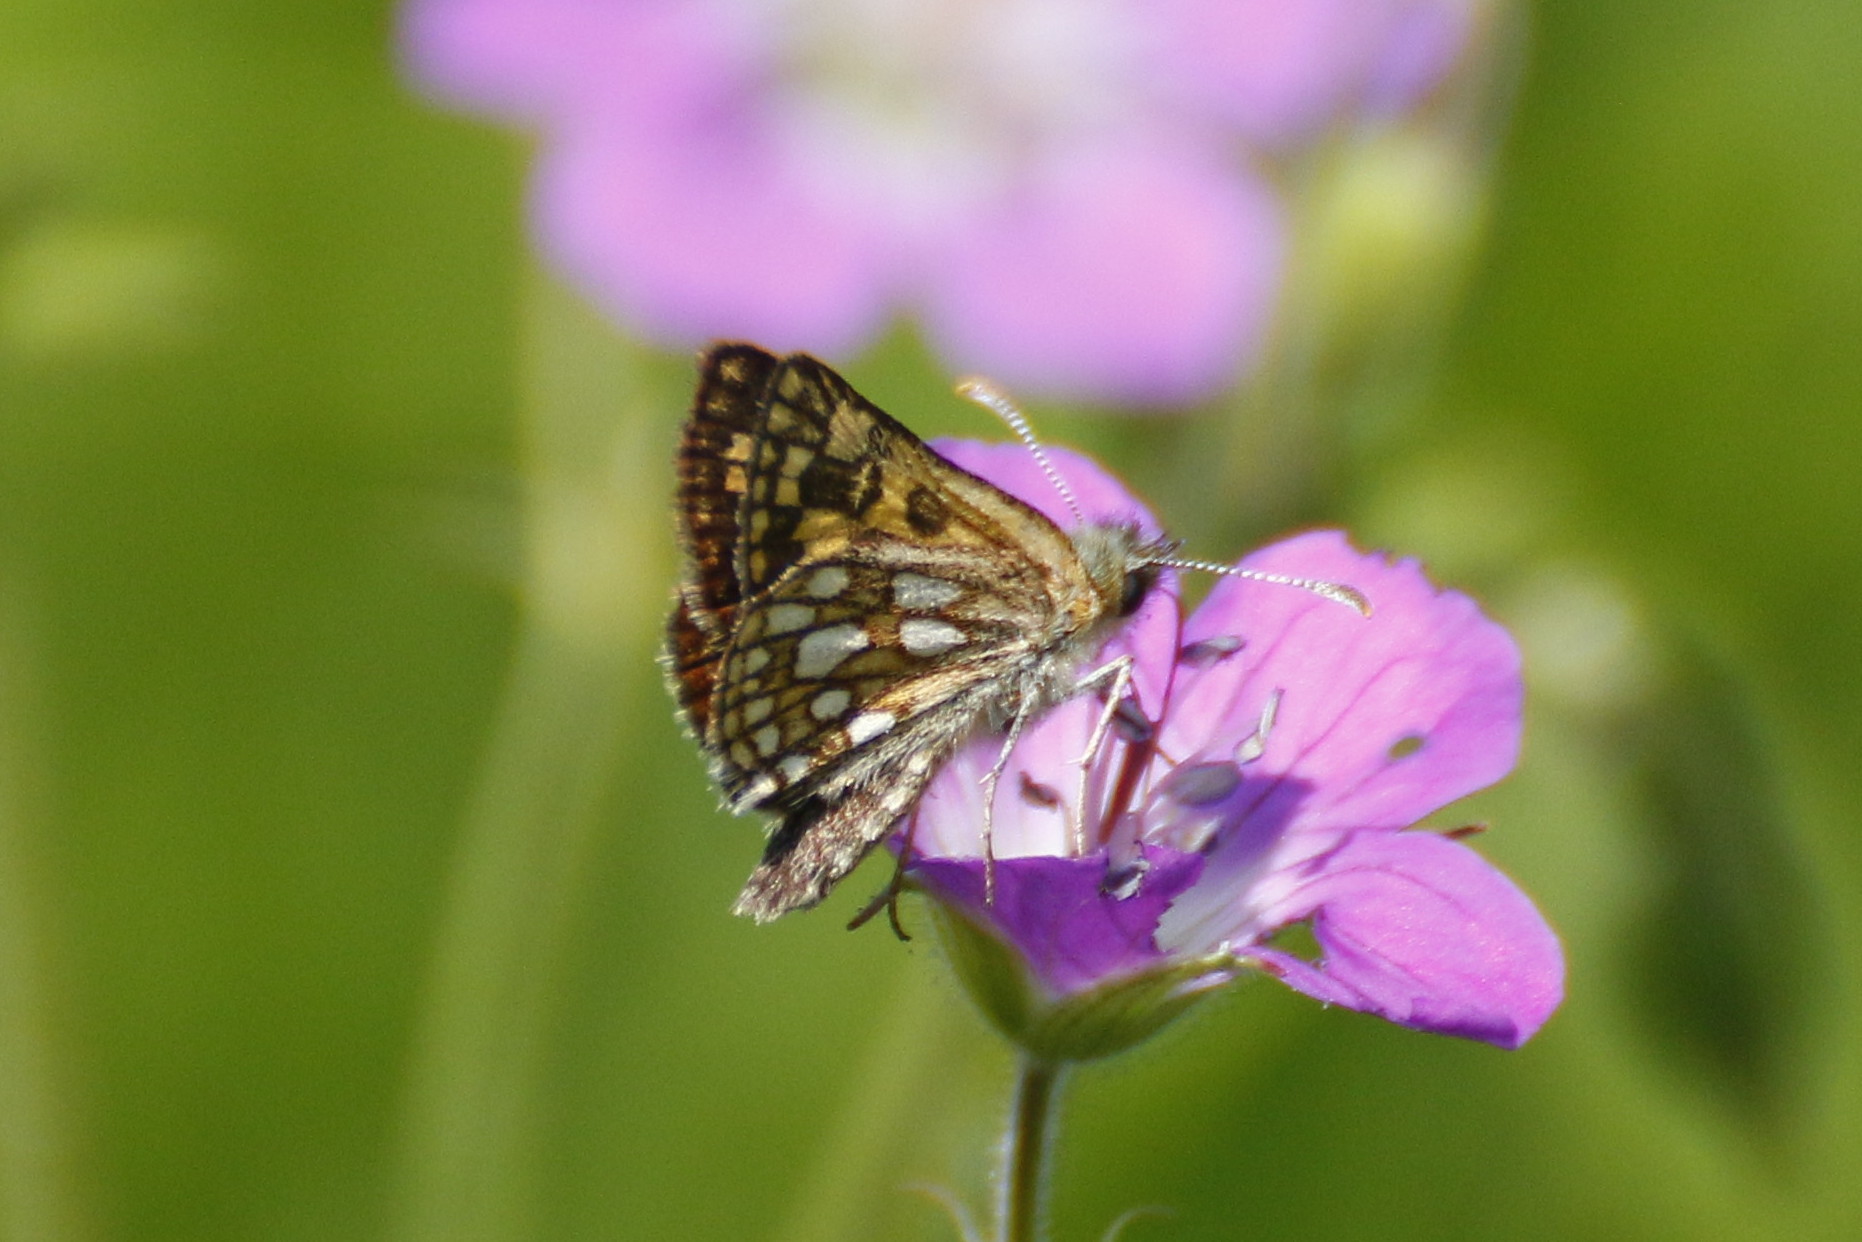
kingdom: Animalia
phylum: Arthropoda
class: Insecta
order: Lepidoptera
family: Hesperiidae
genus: Carterocephalus
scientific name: Carterocephalus palaemon
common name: Chequered skipper
